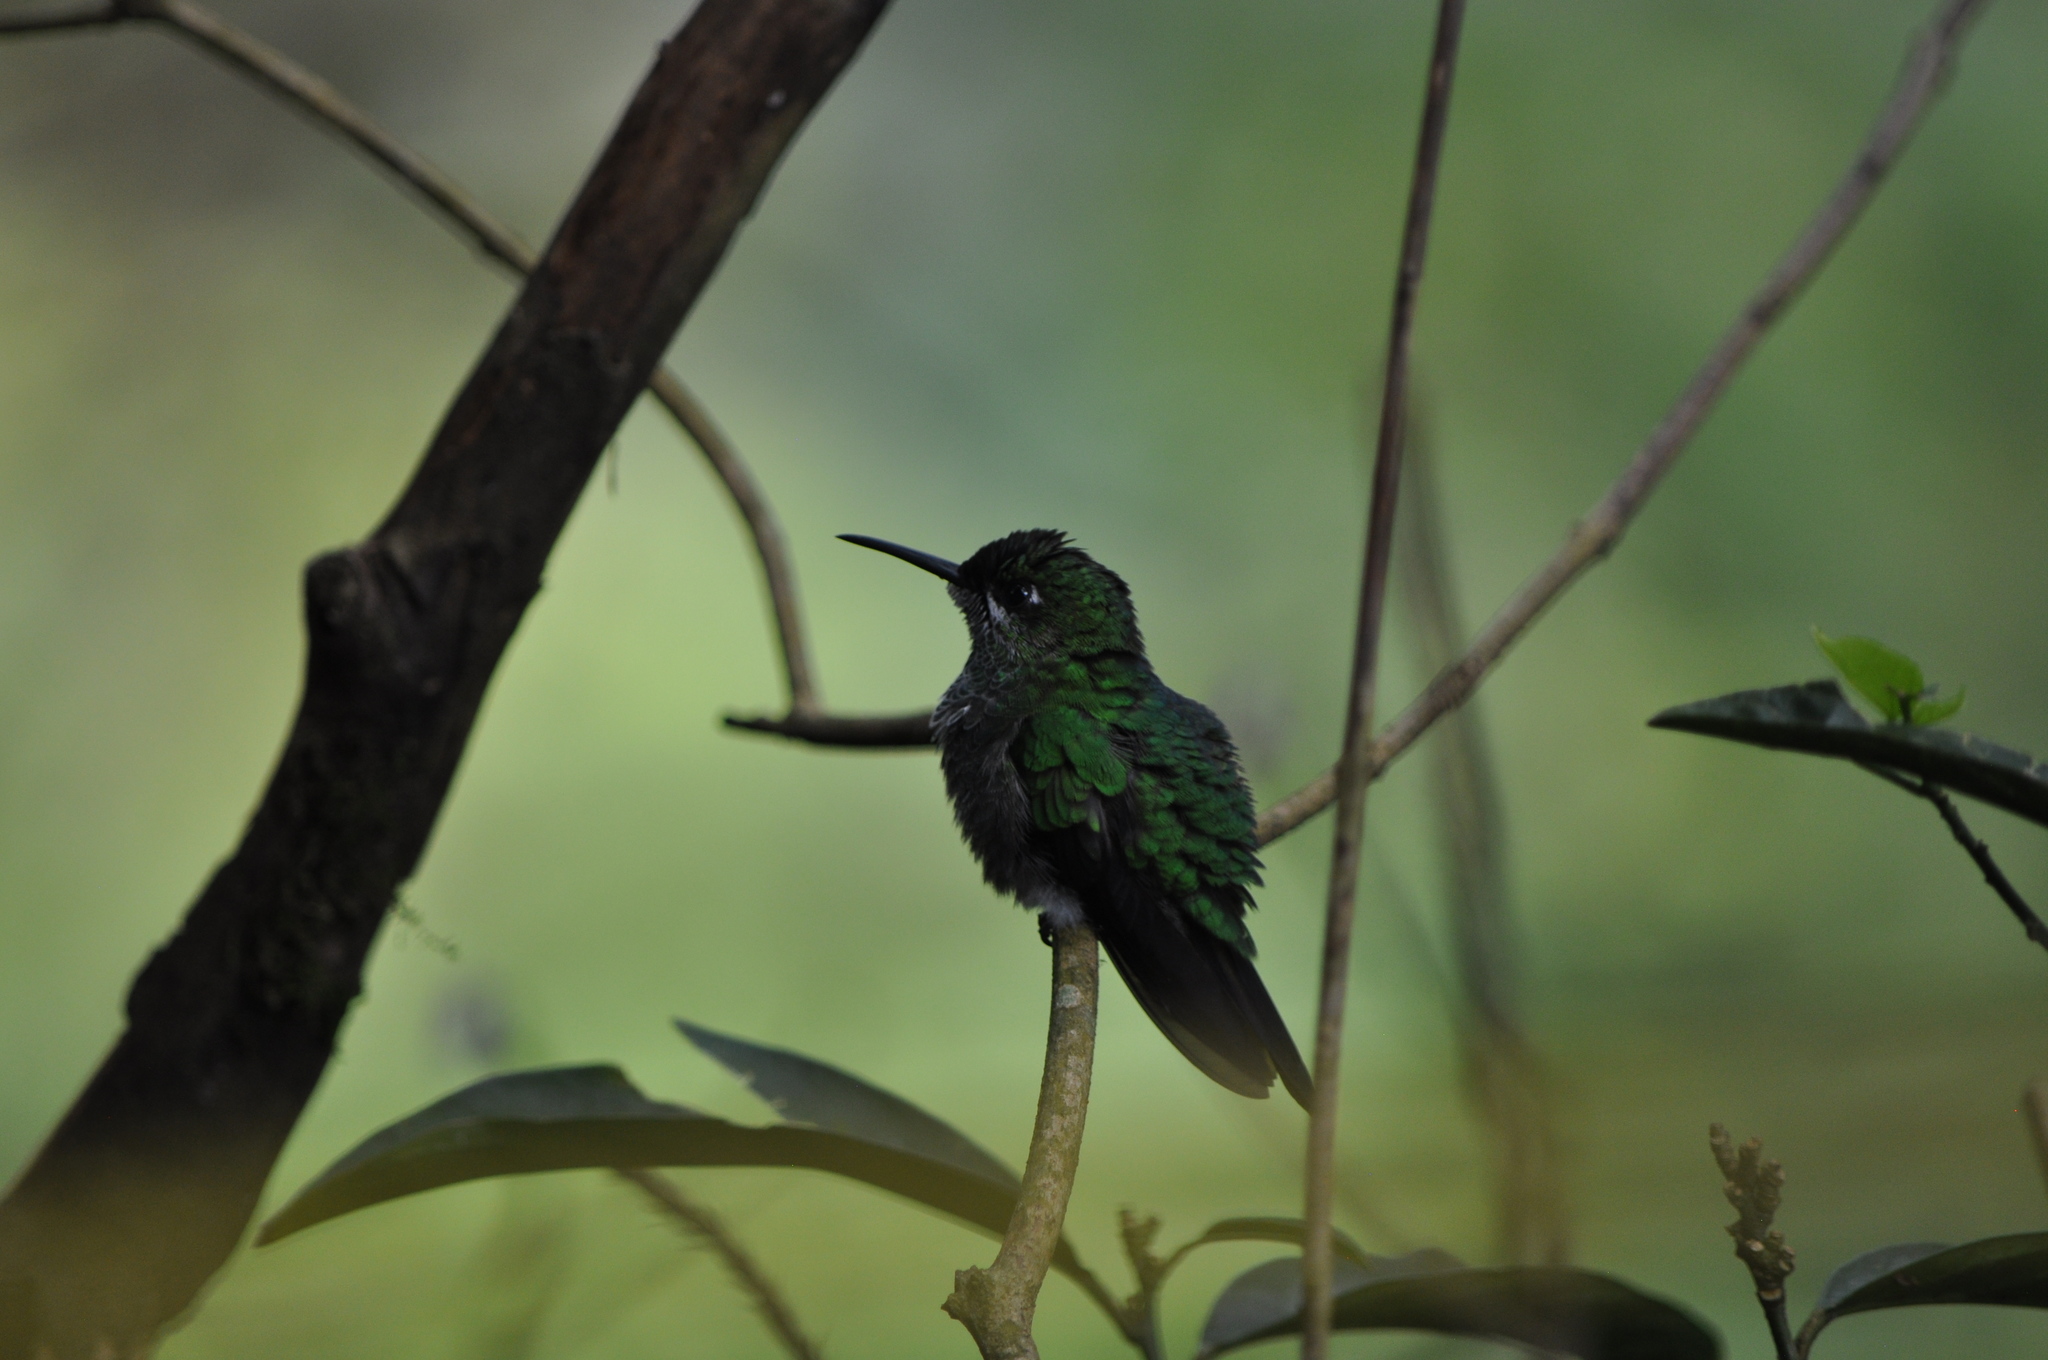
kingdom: Animalia
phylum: Chordata
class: Aves
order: Apodiformes
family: Trochilidae
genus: Heliodoxa
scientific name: Heliodoxa jacula
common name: Green-crowned brilliant
